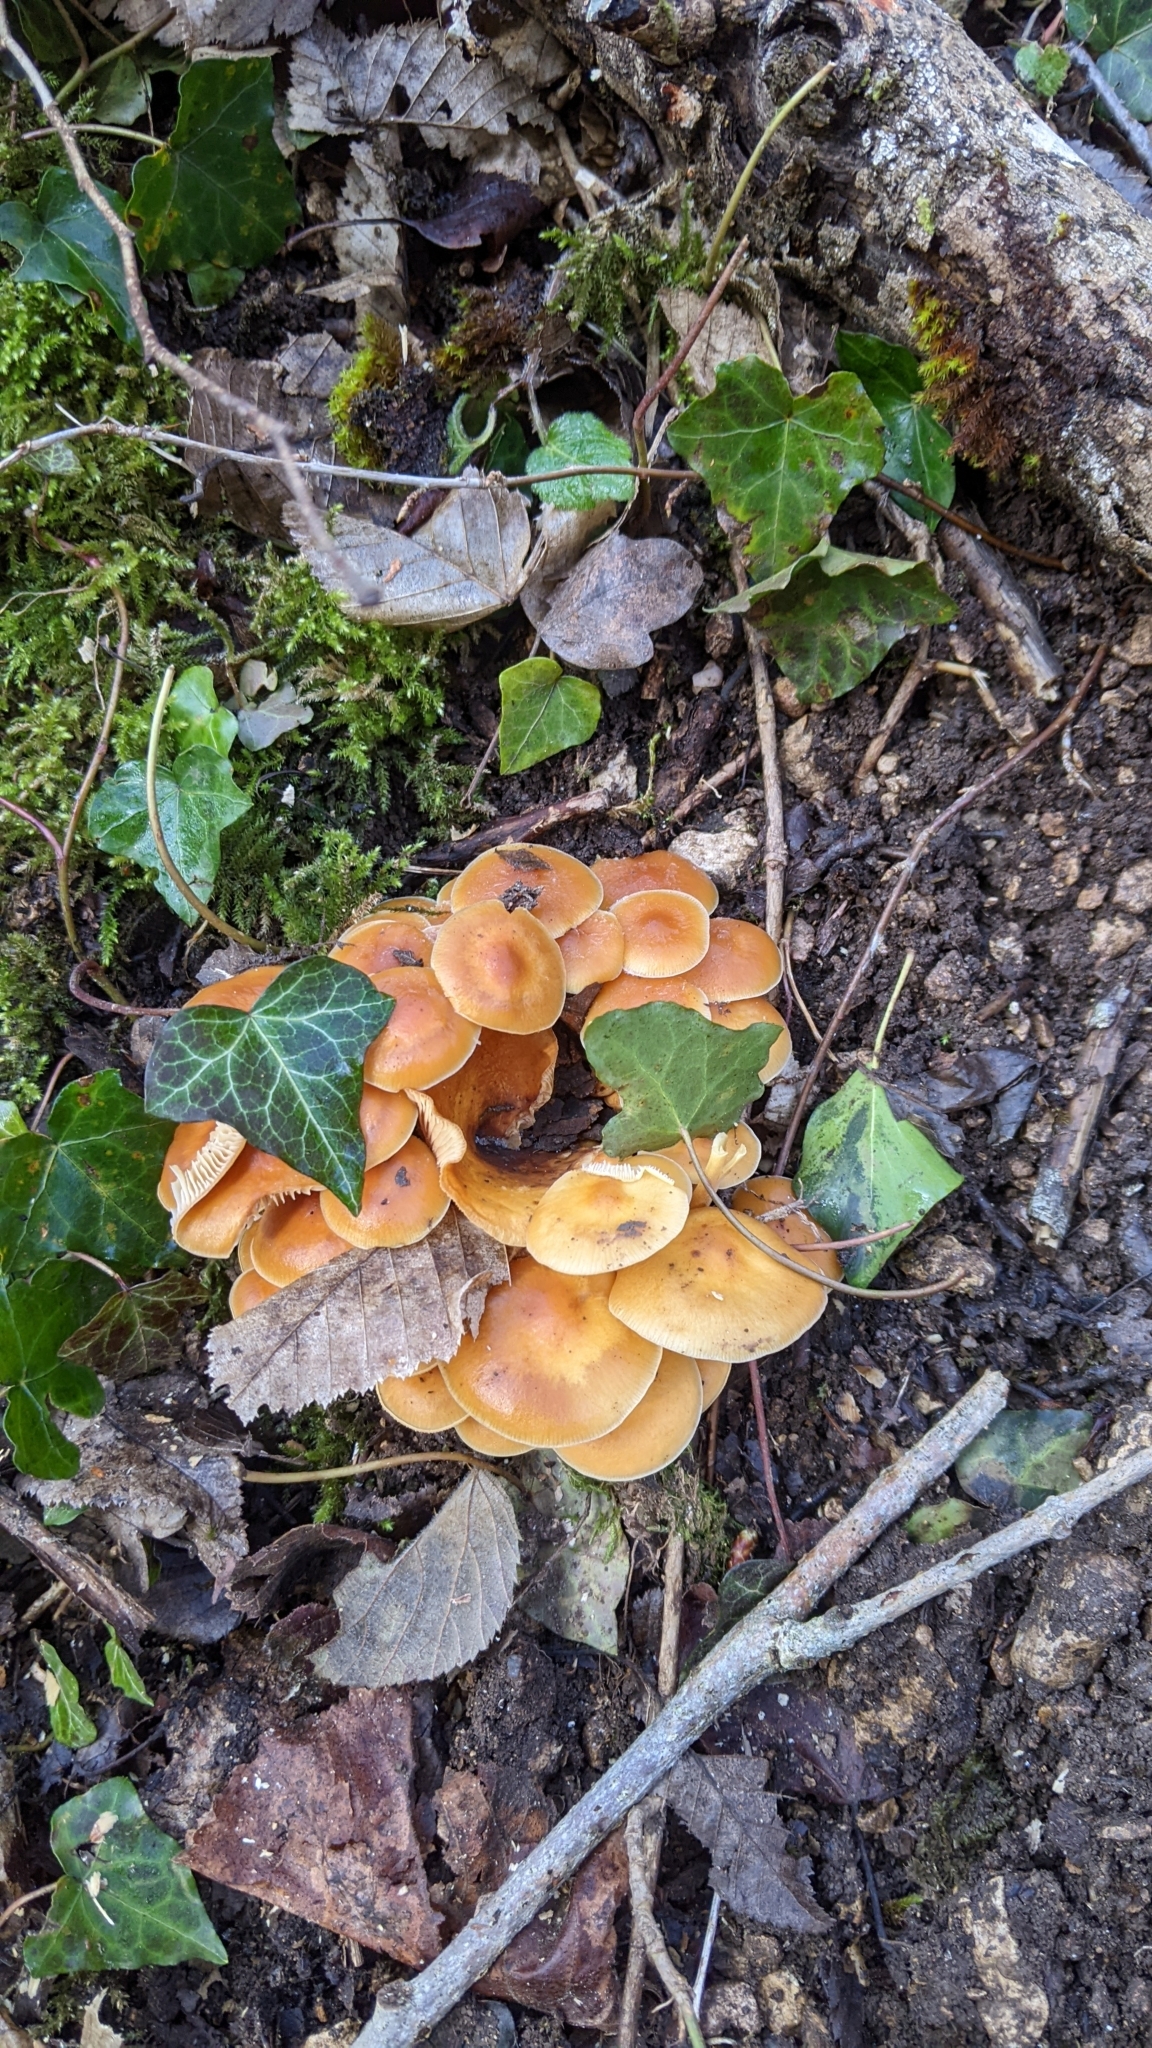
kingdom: Fungi
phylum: Basidiomycota
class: Agaricomycetes
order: Agaricales
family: Physalacriaceae
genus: Flammulina
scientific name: Flammulina
